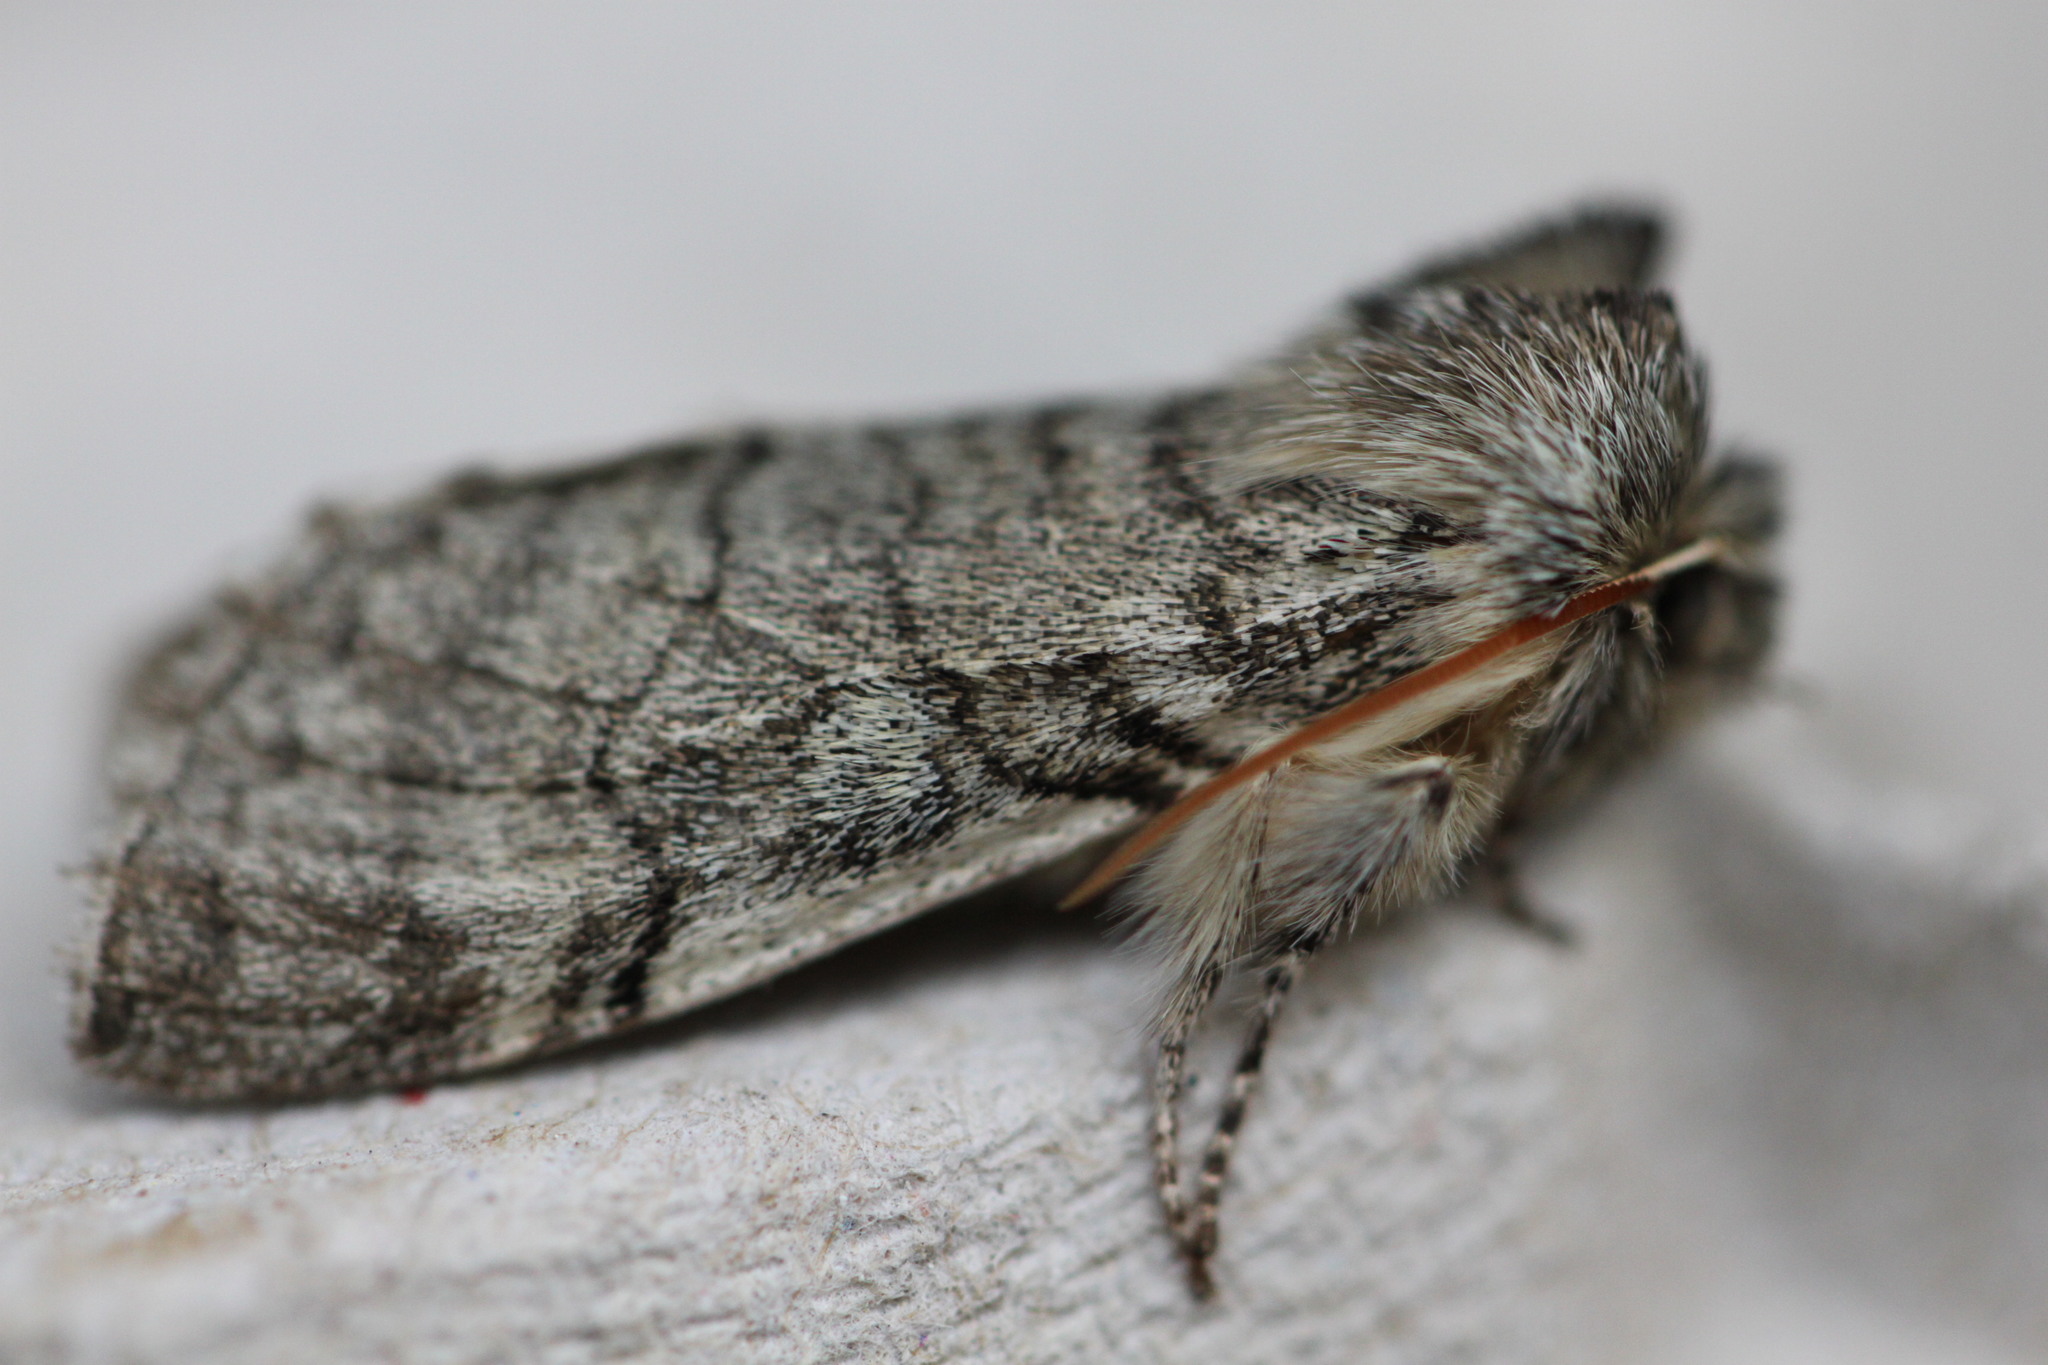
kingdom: Animalia
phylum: Arthropoda
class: Insecta
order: Lepidoptera
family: Drepanidae
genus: Achlya
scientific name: Achlya flavicornis
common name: Yellow horned
